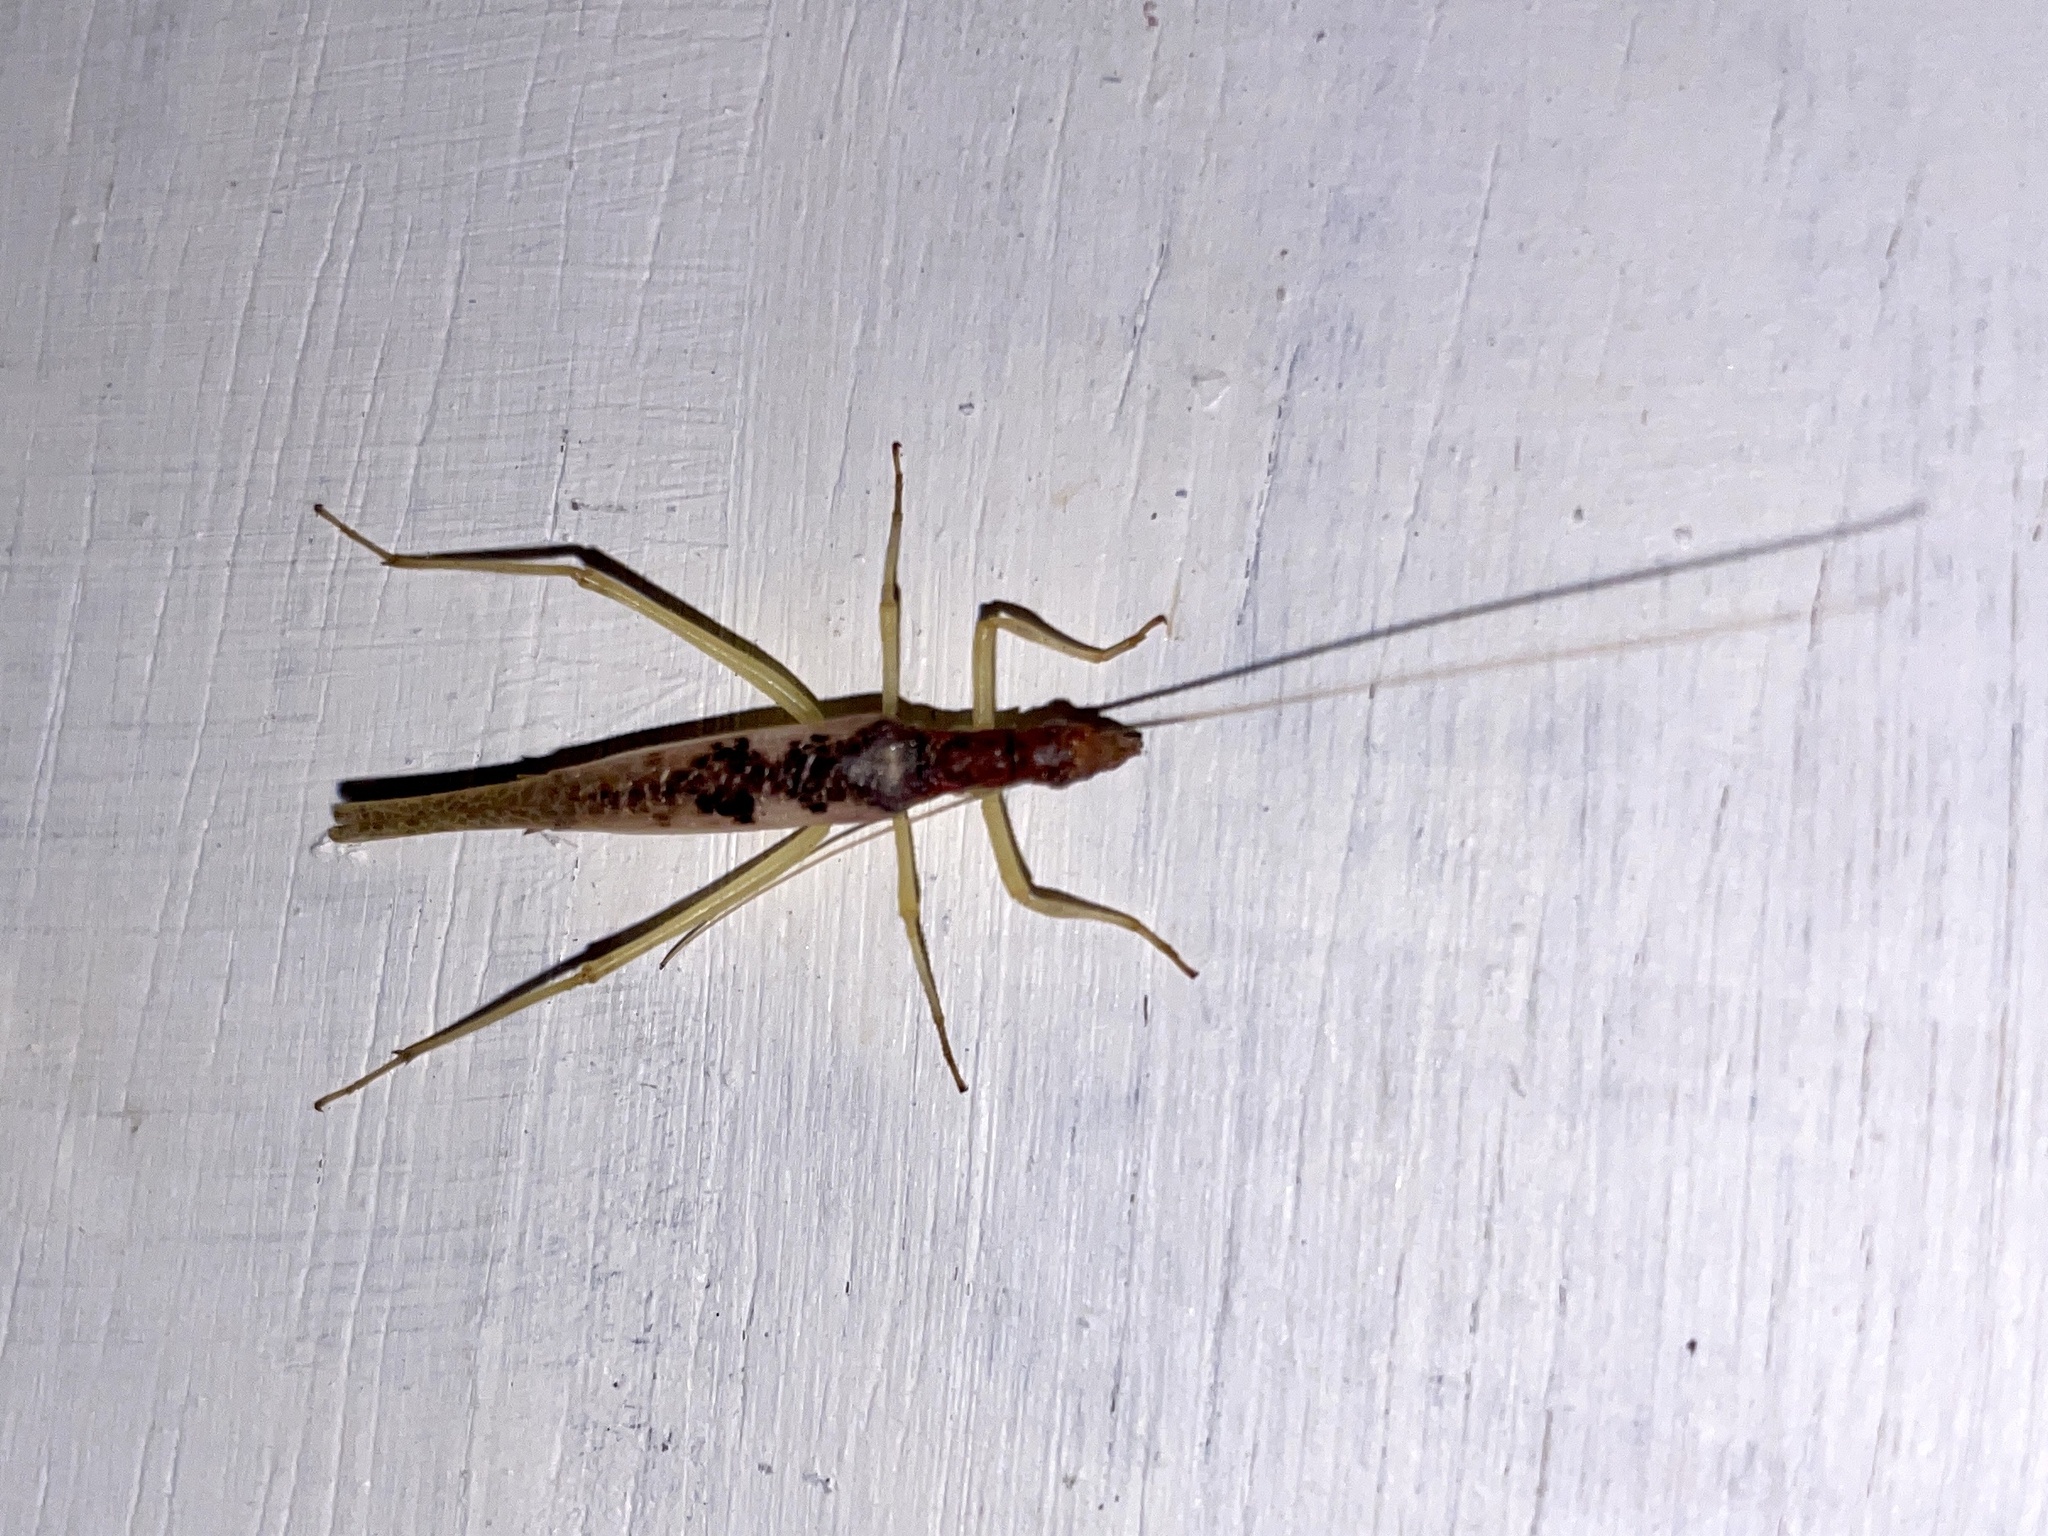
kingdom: Animalia
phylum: Arthropoda
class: Insecta
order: Orthoptera
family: Gryllidae
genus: Neoxabea
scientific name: Neoxabea bipunctata
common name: Two-spotted tree cricket
